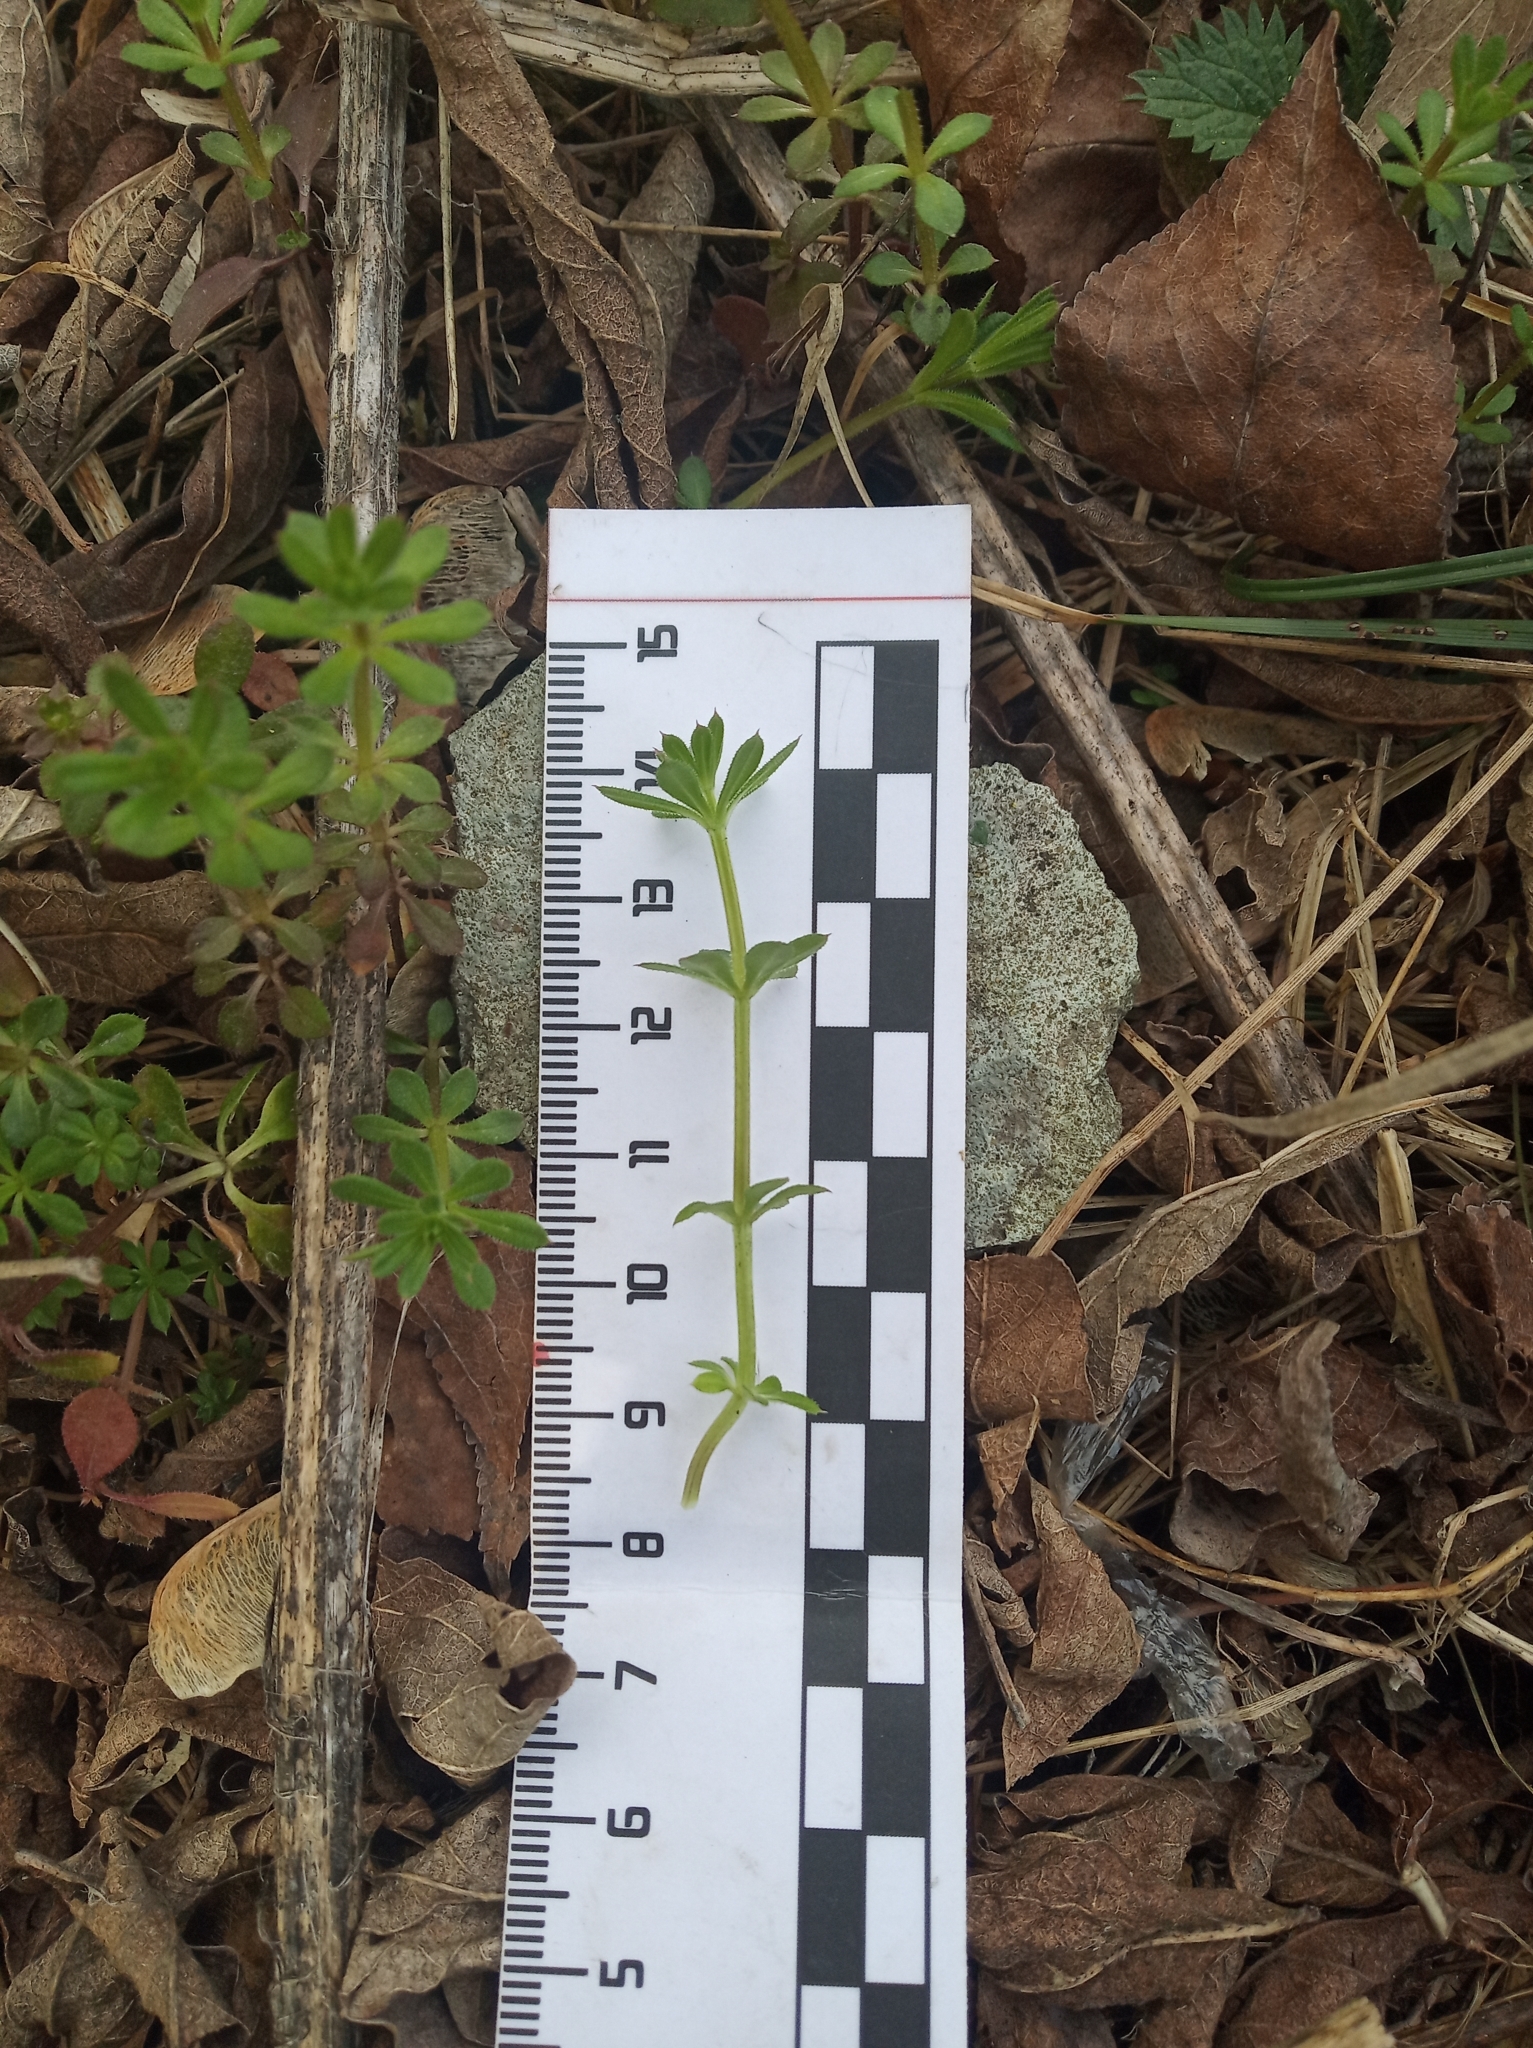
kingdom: Plantae
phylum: Tracheophyta
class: Magnoliopsida
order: Gentianales
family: Rubiaceae
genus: Galium
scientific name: Galium mollugo
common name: Hedge bedstraw
